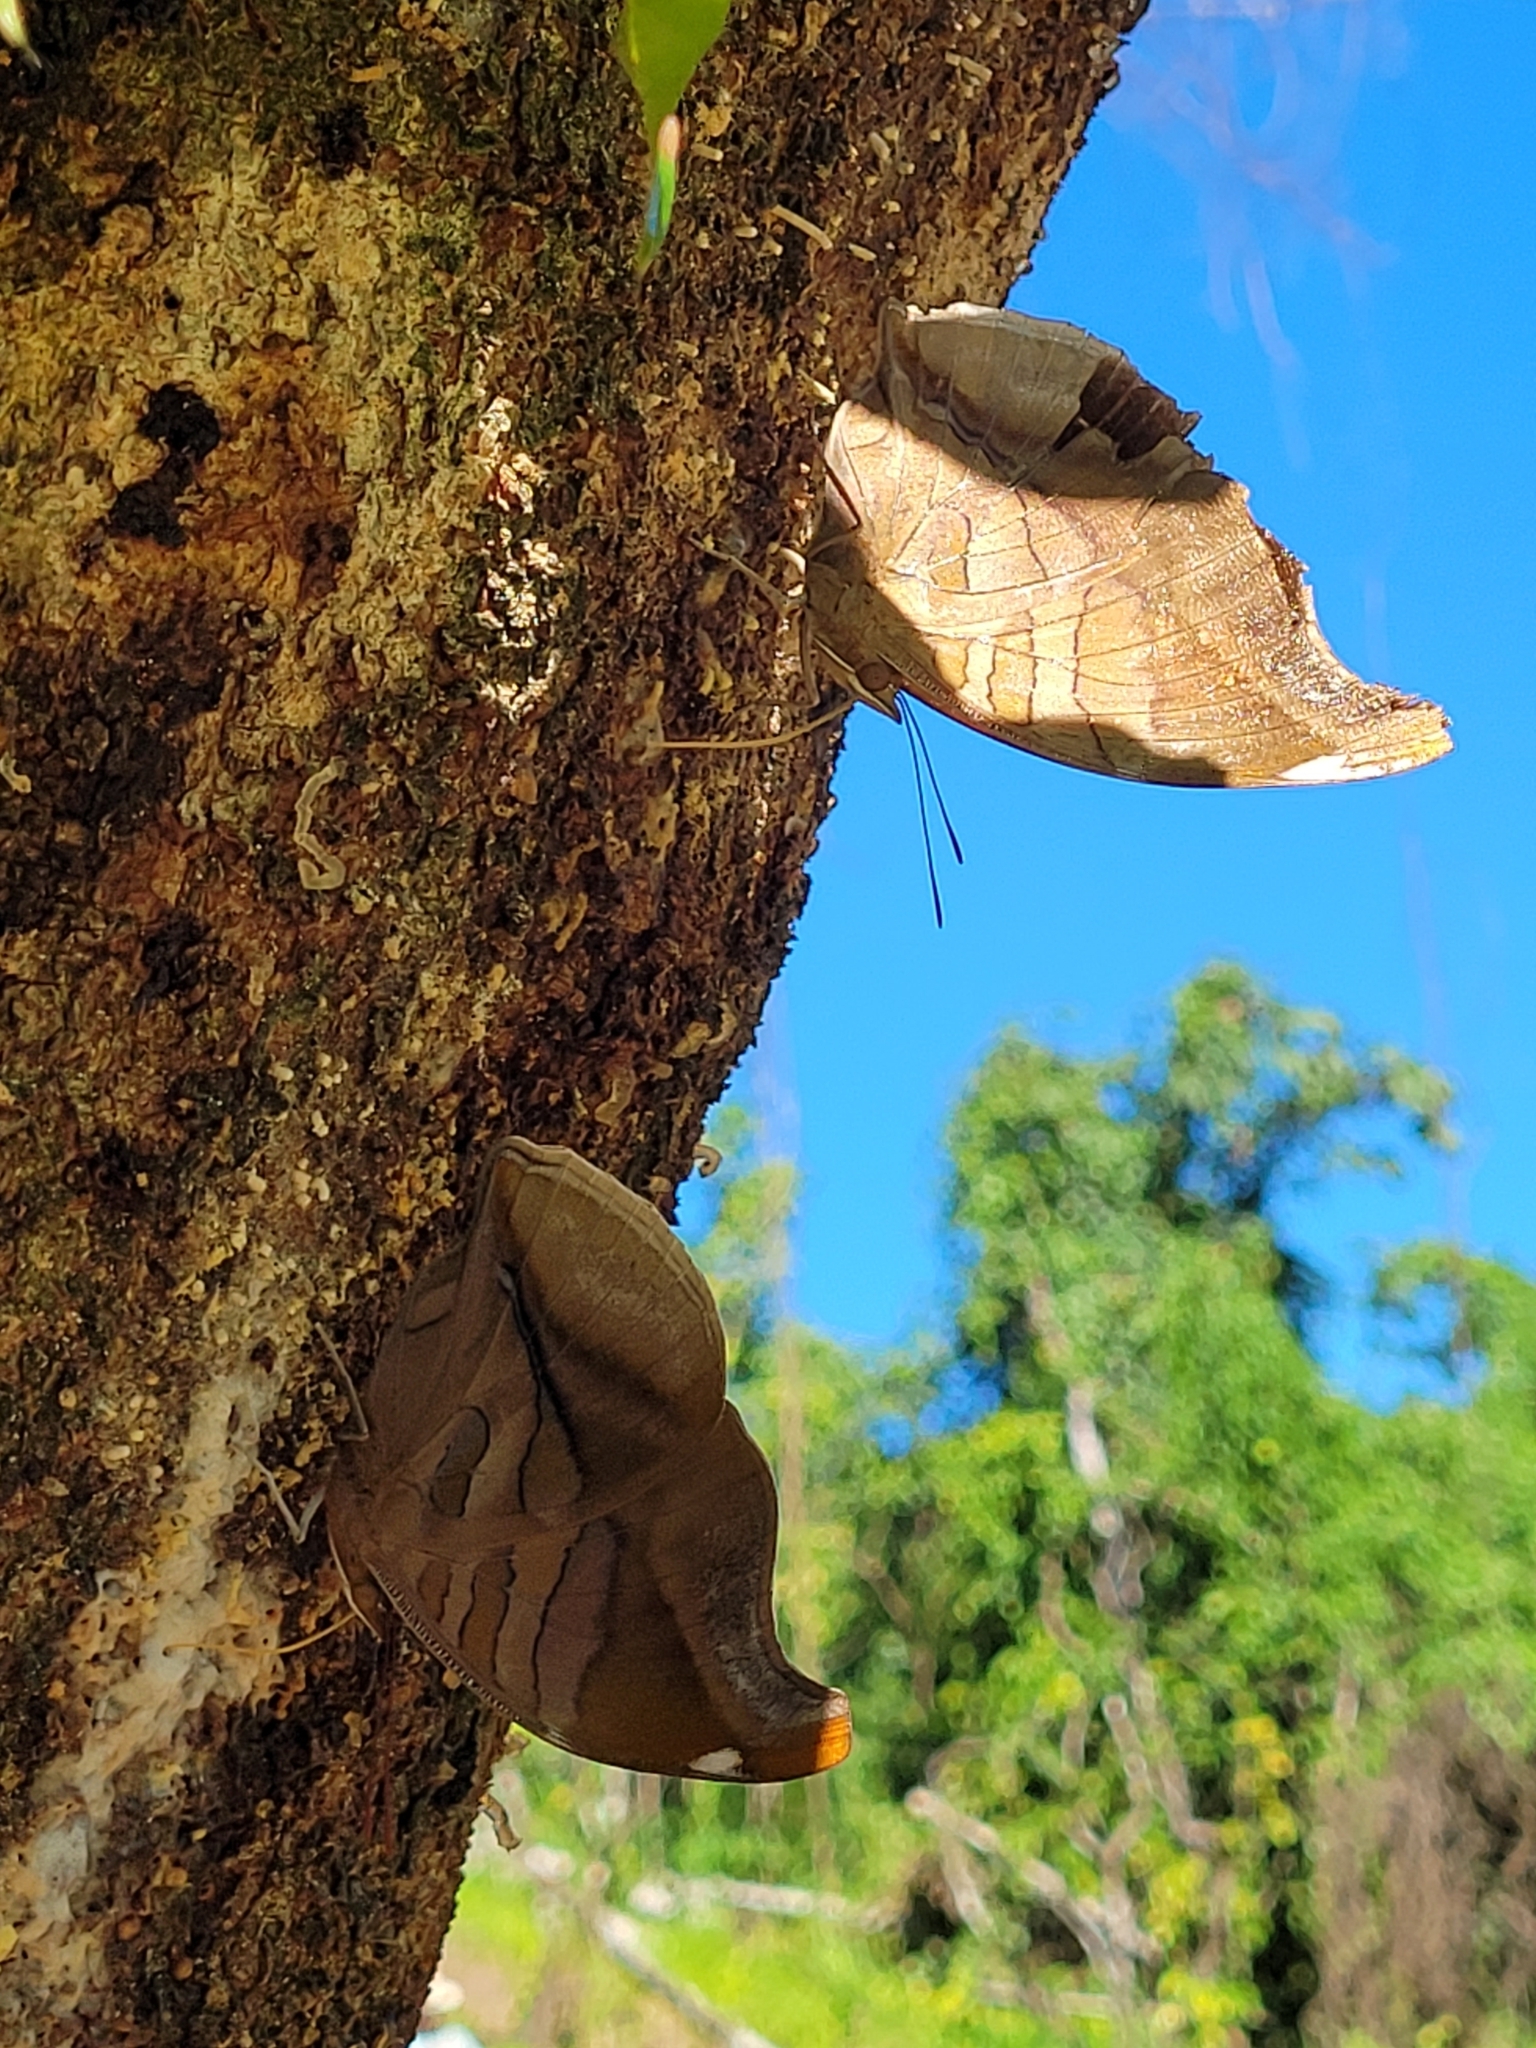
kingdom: Animalia
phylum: Arthropoda
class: Insecta
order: Lepidoptera
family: Nymphalidae
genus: Historis
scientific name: Historis odius
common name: Orion cecropian
